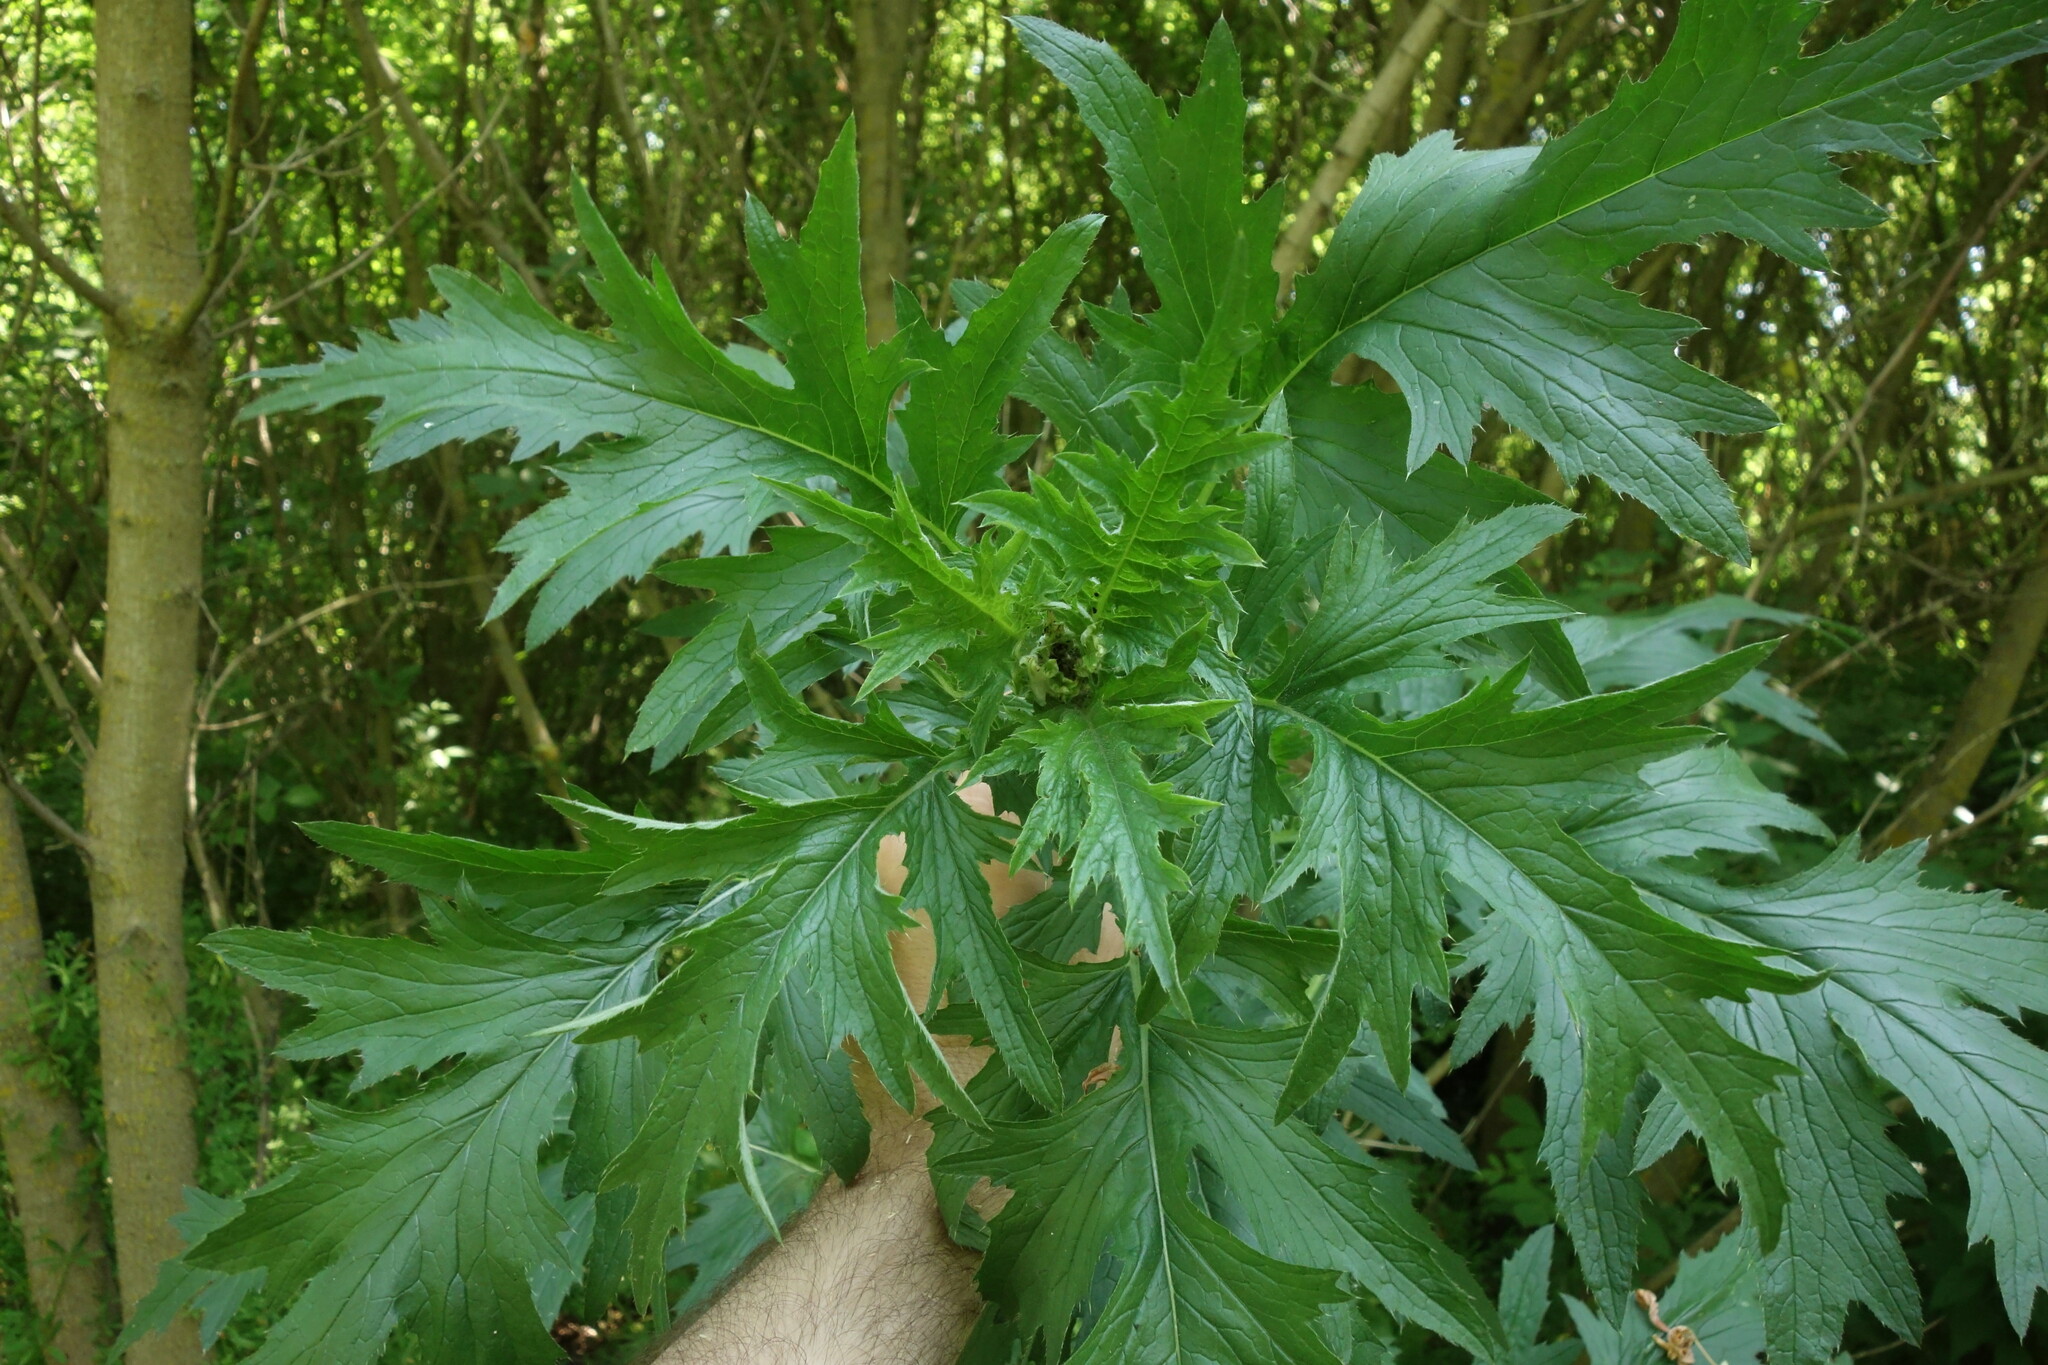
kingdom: Plantae
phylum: Tracheophyta
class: Magnoliopsida
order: Asterales
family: Asteraceae
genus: Carduus
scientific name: Carduus crispus
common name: Welted thistle
